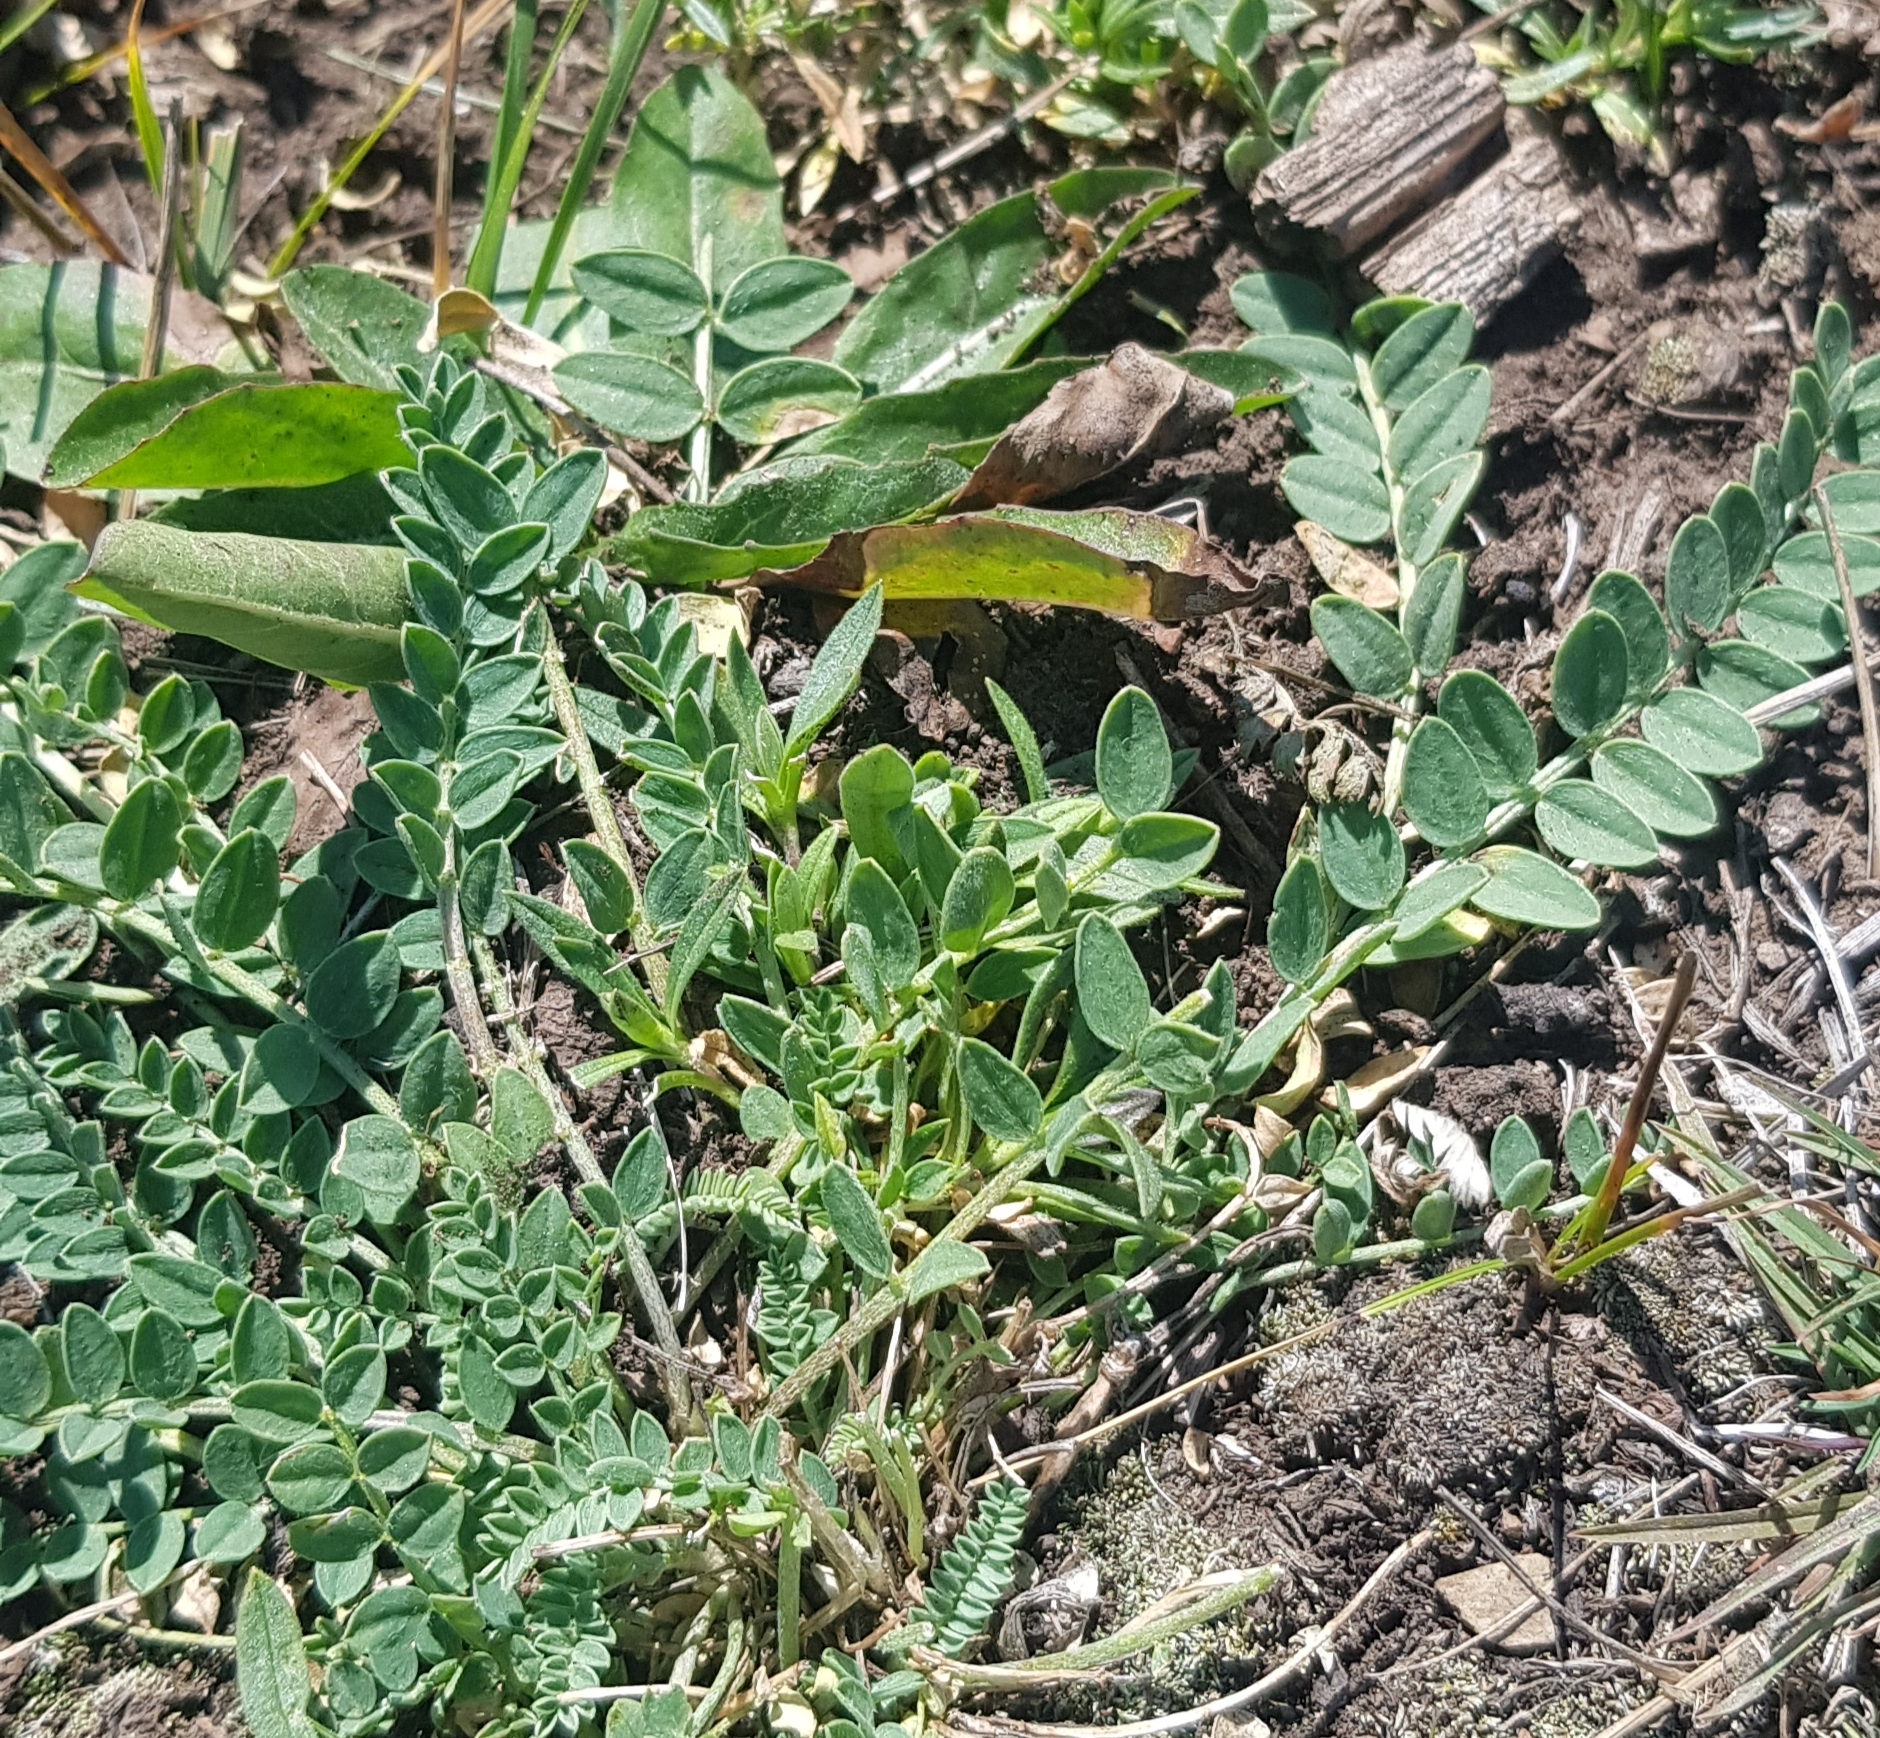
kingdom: Plantae
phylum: Tracheophyta
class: Magnoliopsida
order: Fabales
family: Fabaceae
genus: Astragalus
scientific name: Astragalus laxmannii
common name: Laxmann's milk-vetch
